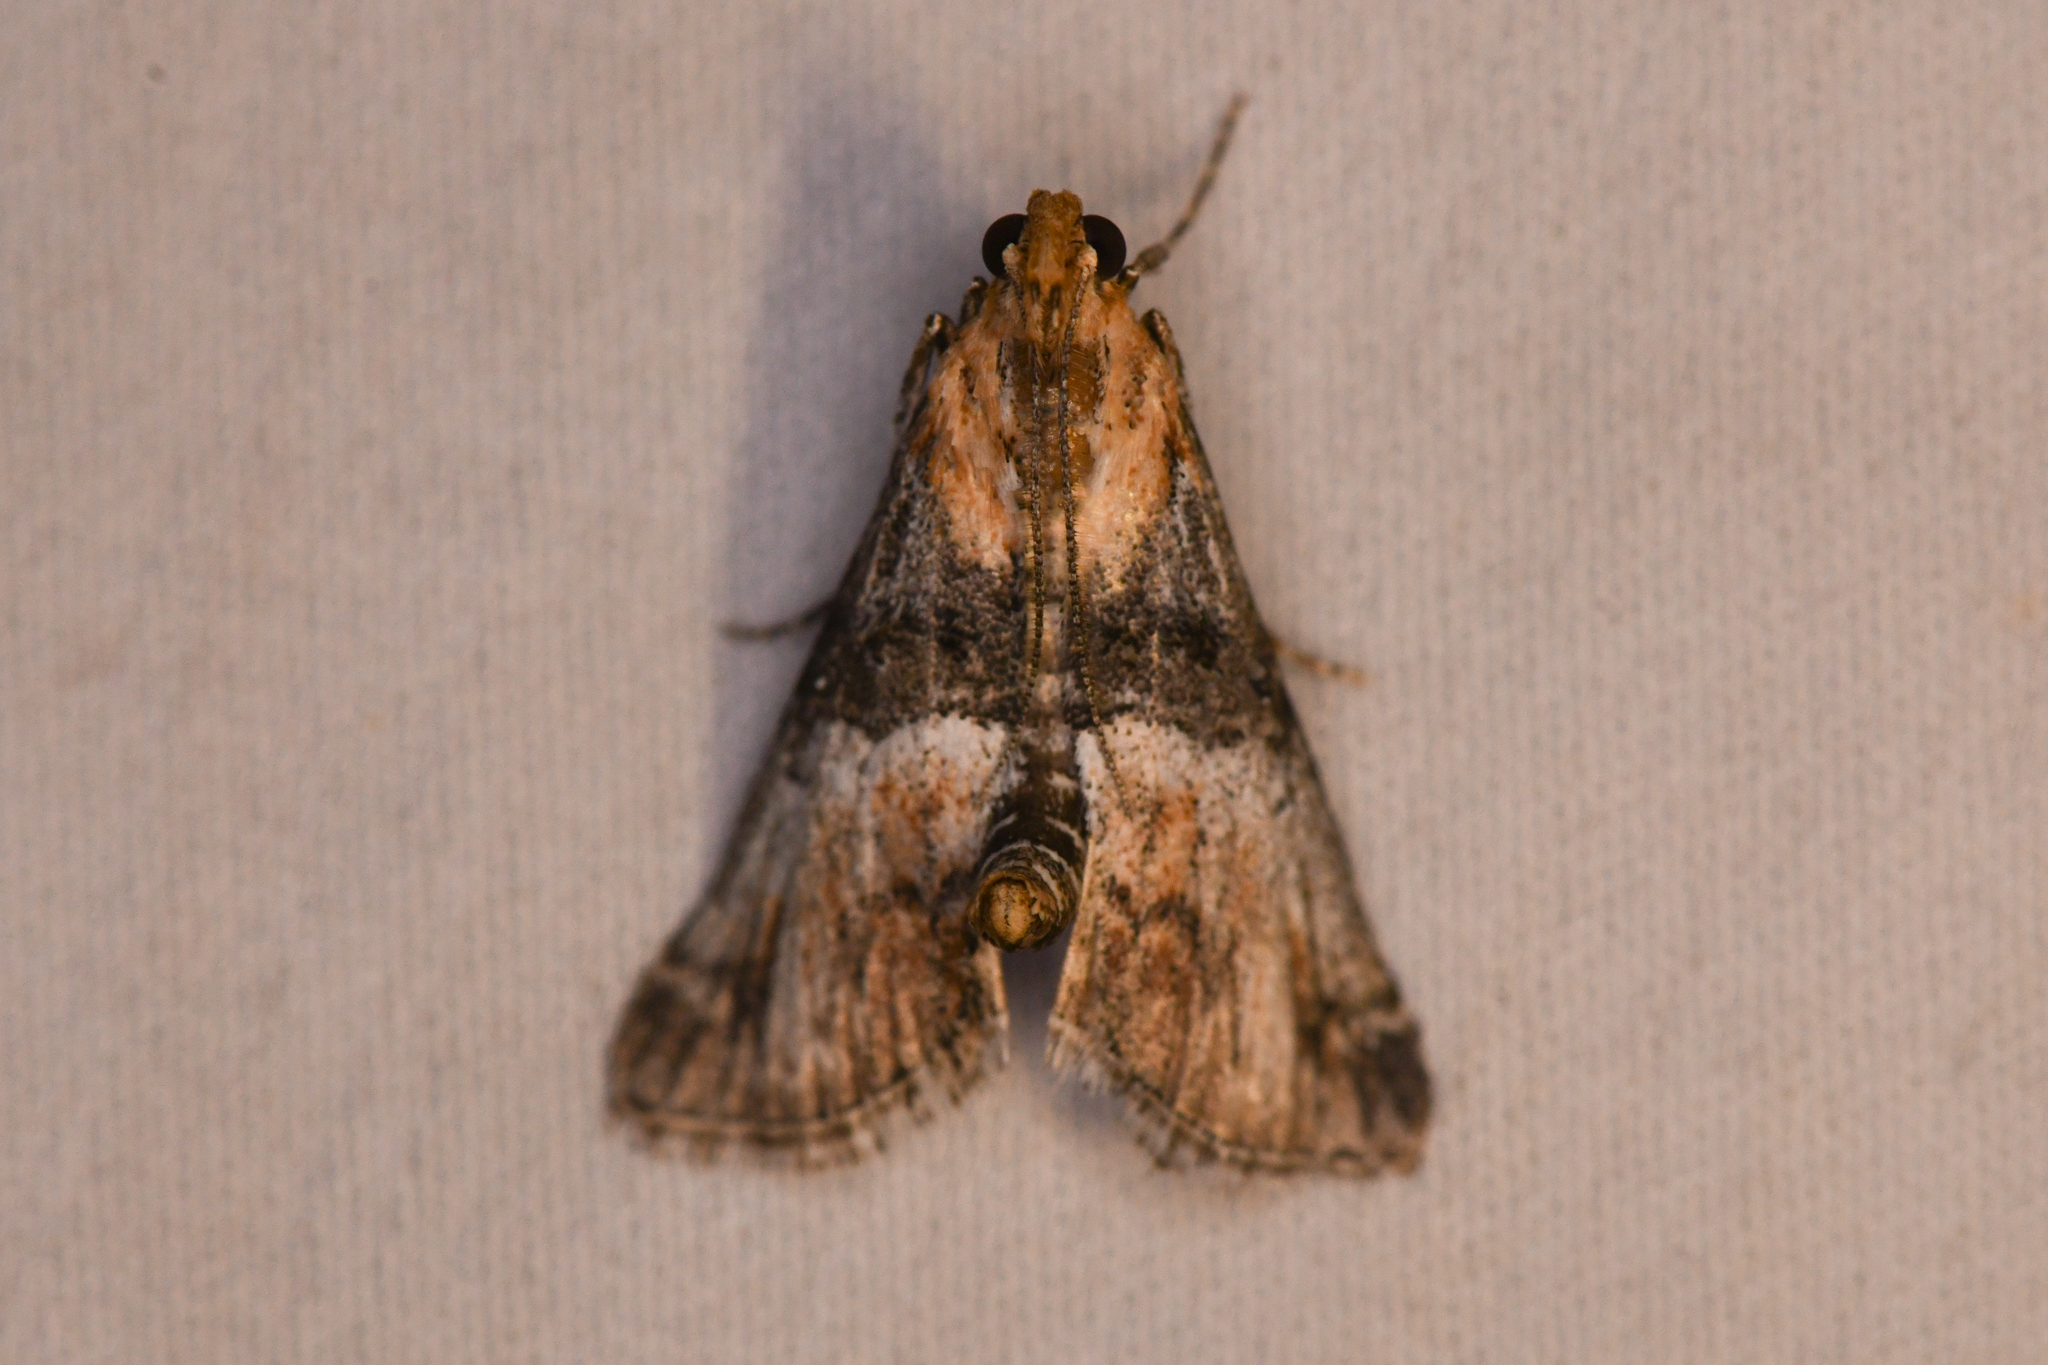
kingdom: Animalia
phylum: Arthropoda
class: Insecta
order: Lepidoptera
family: Pyralidae
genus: Toripalpus
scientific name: Toripalpus trabalis
